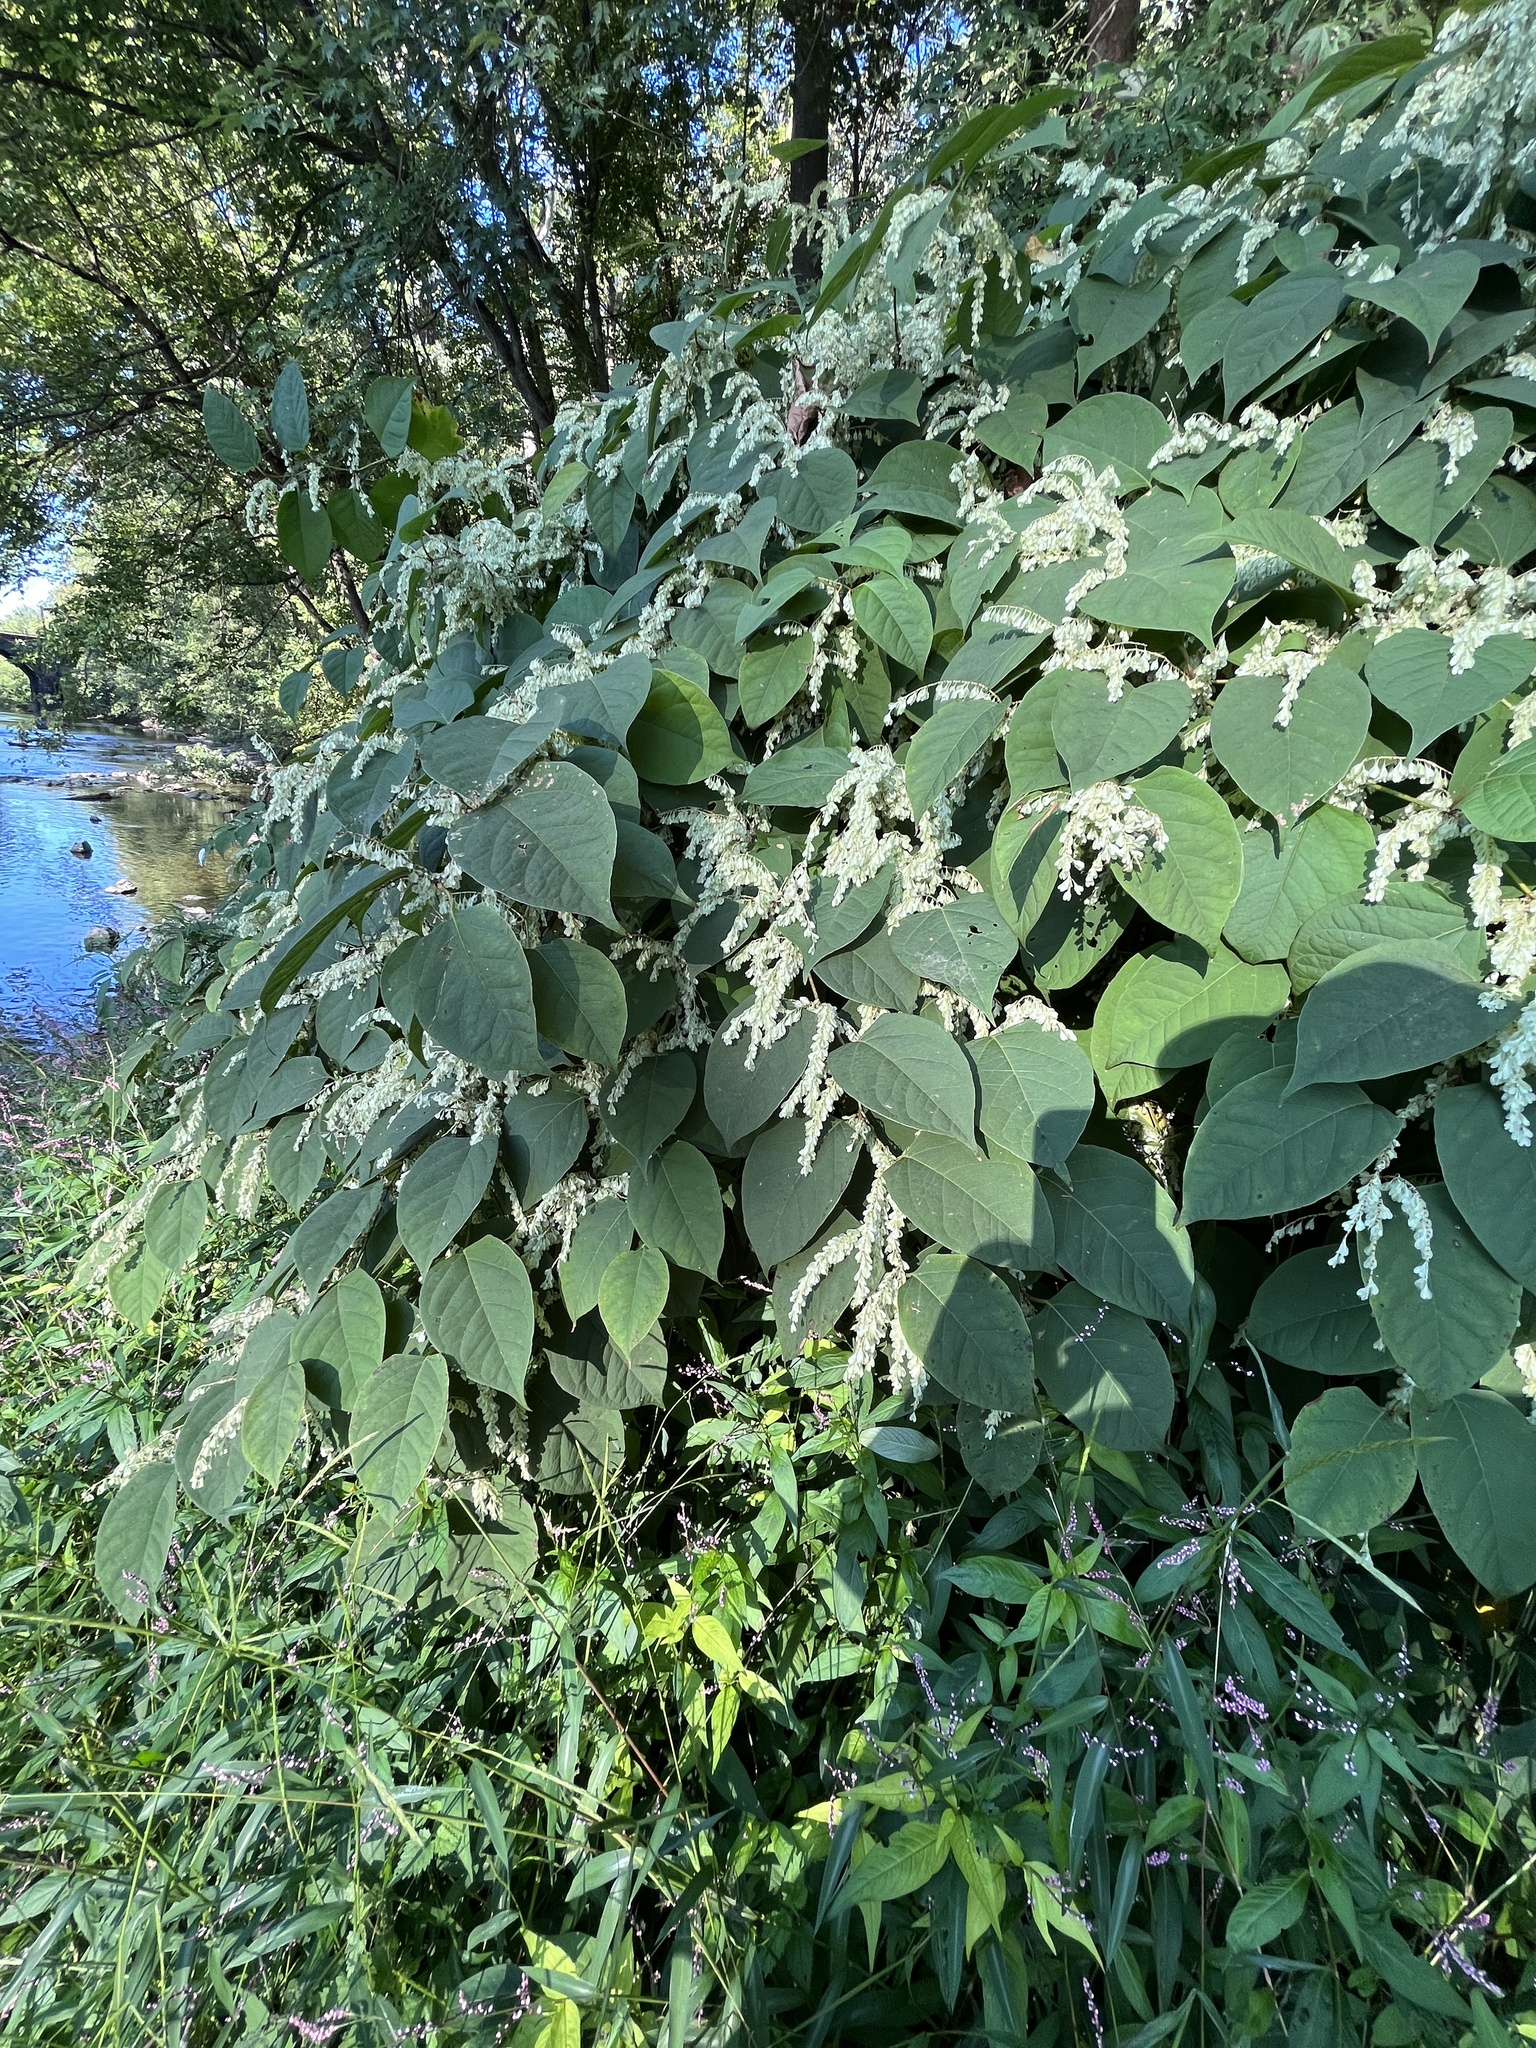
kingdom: Plantae
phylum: Tracheophyta
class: Magnoliopsida
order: Caryophyllales
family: Polygonaceae
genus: Reynoutria
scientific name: Reynoutria japonica
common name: Japanese knotweed
